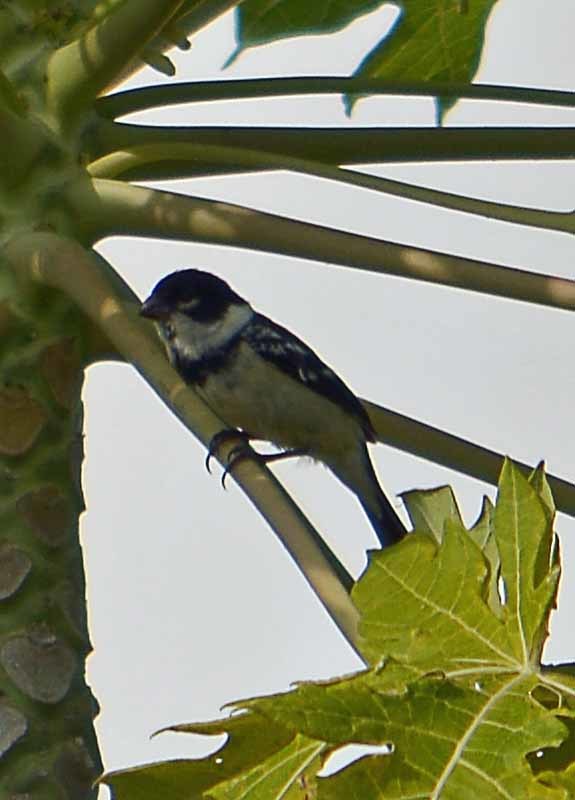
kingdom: Animalia
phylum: Chordata
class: Aves
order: Passeriformes
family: Thraupidae
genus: Sporophila
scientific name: Sporophila morelleti
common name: Morelet's seedeater
